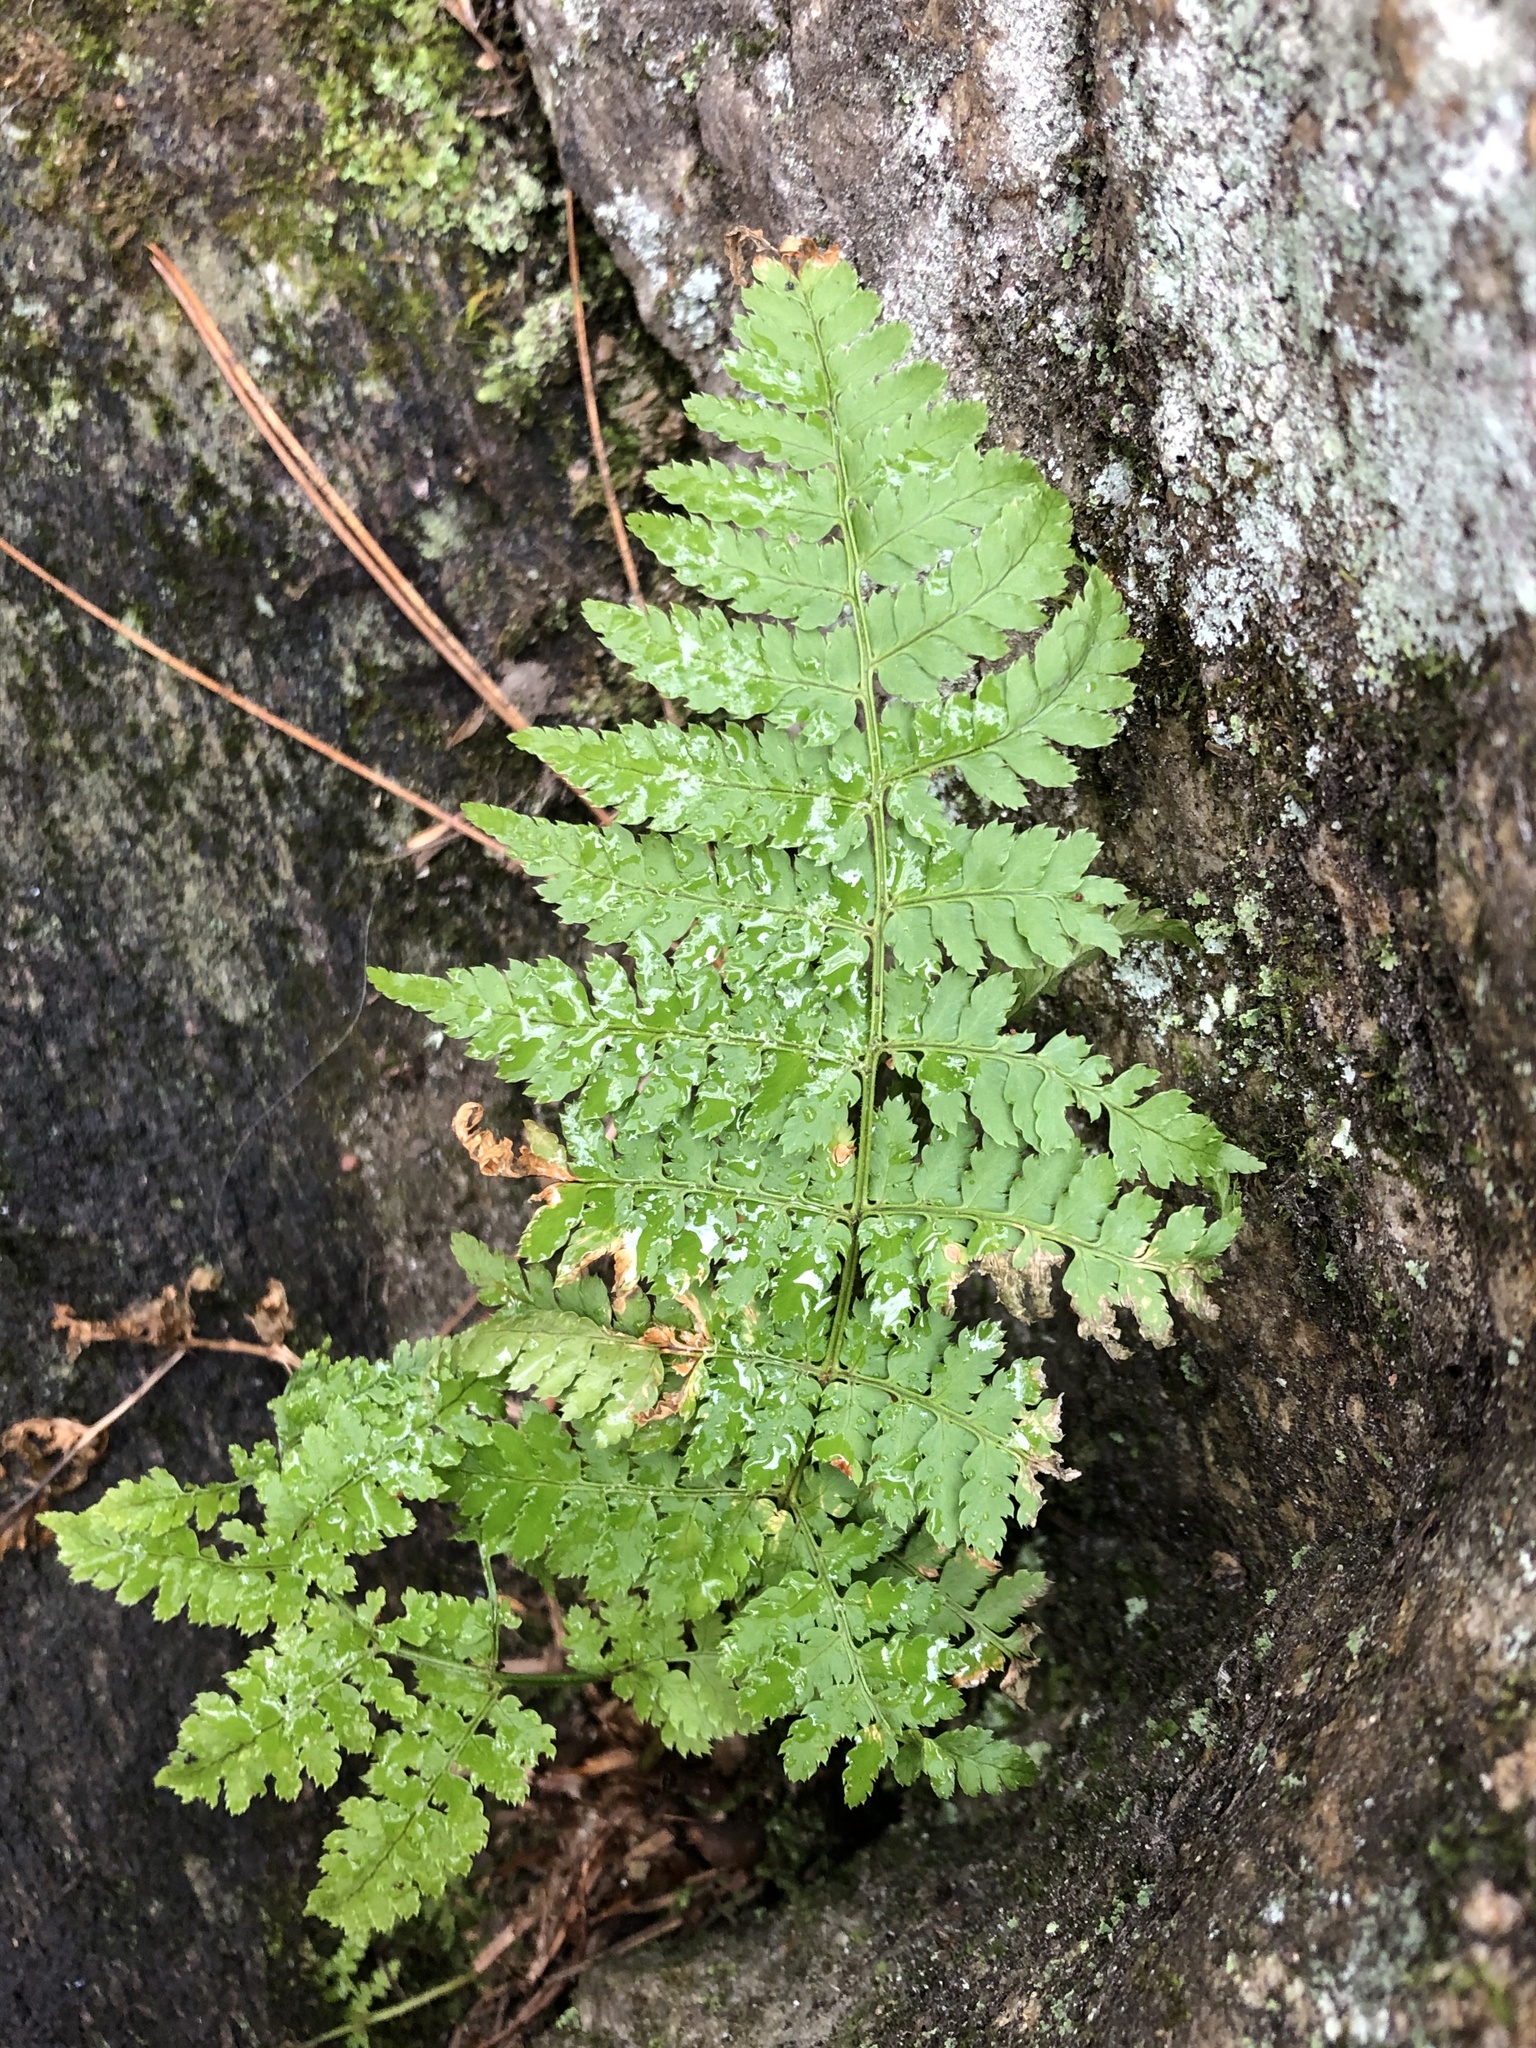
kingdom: Plantae
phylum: Tracheophyta
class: Polypodiopsida
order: Polypodiales
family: Dryopteridaceae
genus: Dryopteris
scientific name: Dryopteris intermedia
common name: Evergreen wood fern
